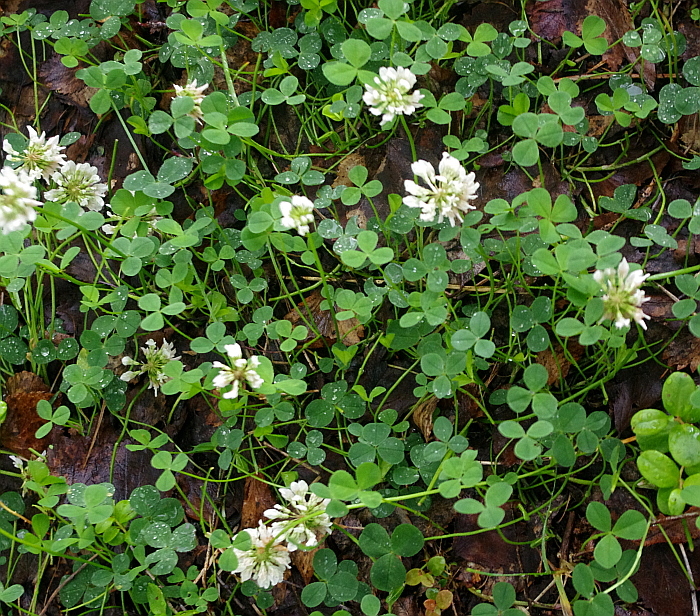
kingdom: Plantae
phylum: Tracheophyta
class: Magnoliopsida
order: Fabales
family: Fabaceae
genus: Trifolium
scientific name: Trifolium repens
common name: White clover
